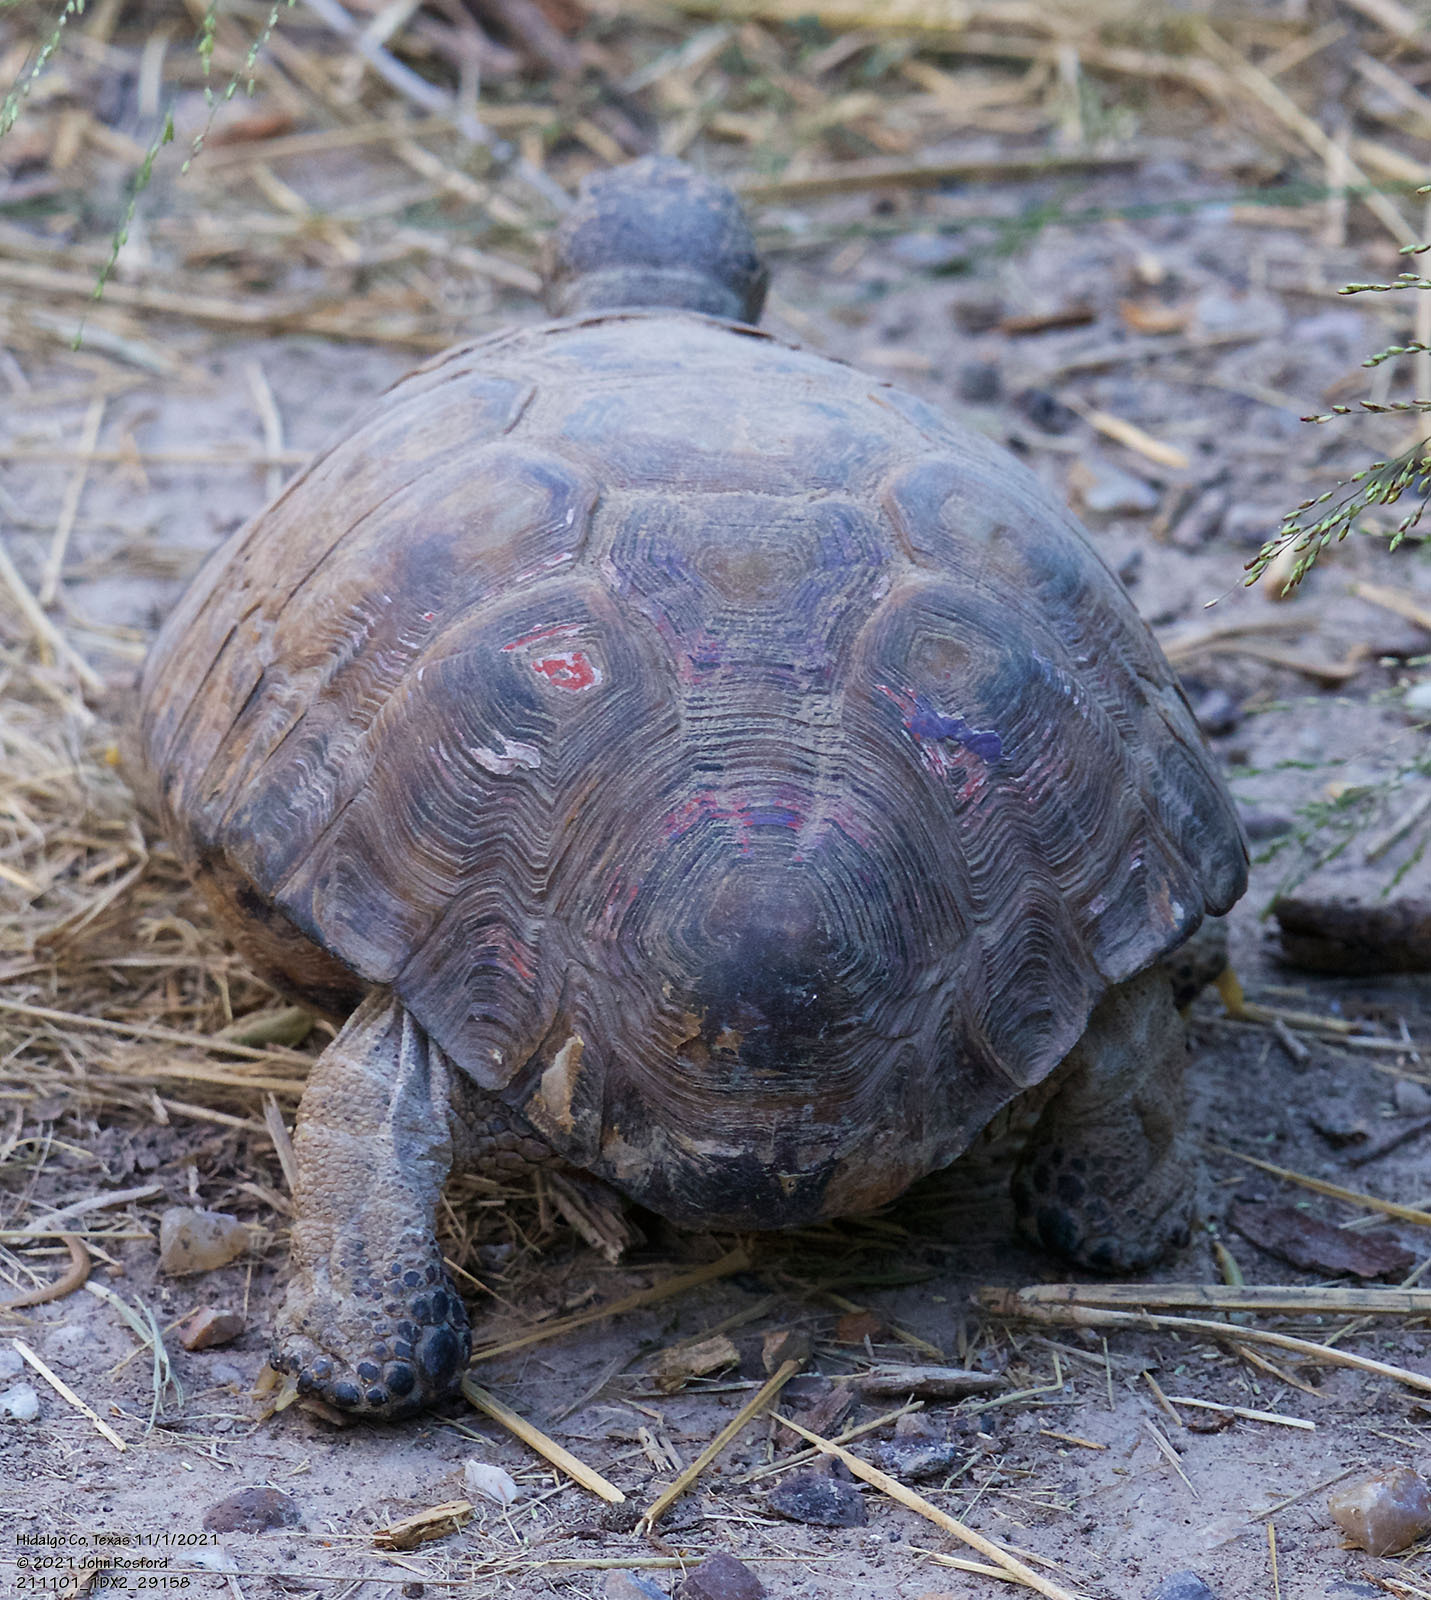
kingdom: Animalia
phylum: Chordata
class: Testudines
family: Testudinidae
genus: Gopherus
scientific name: Gopherus berlandieri
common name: Texas (gopher )tortoise
